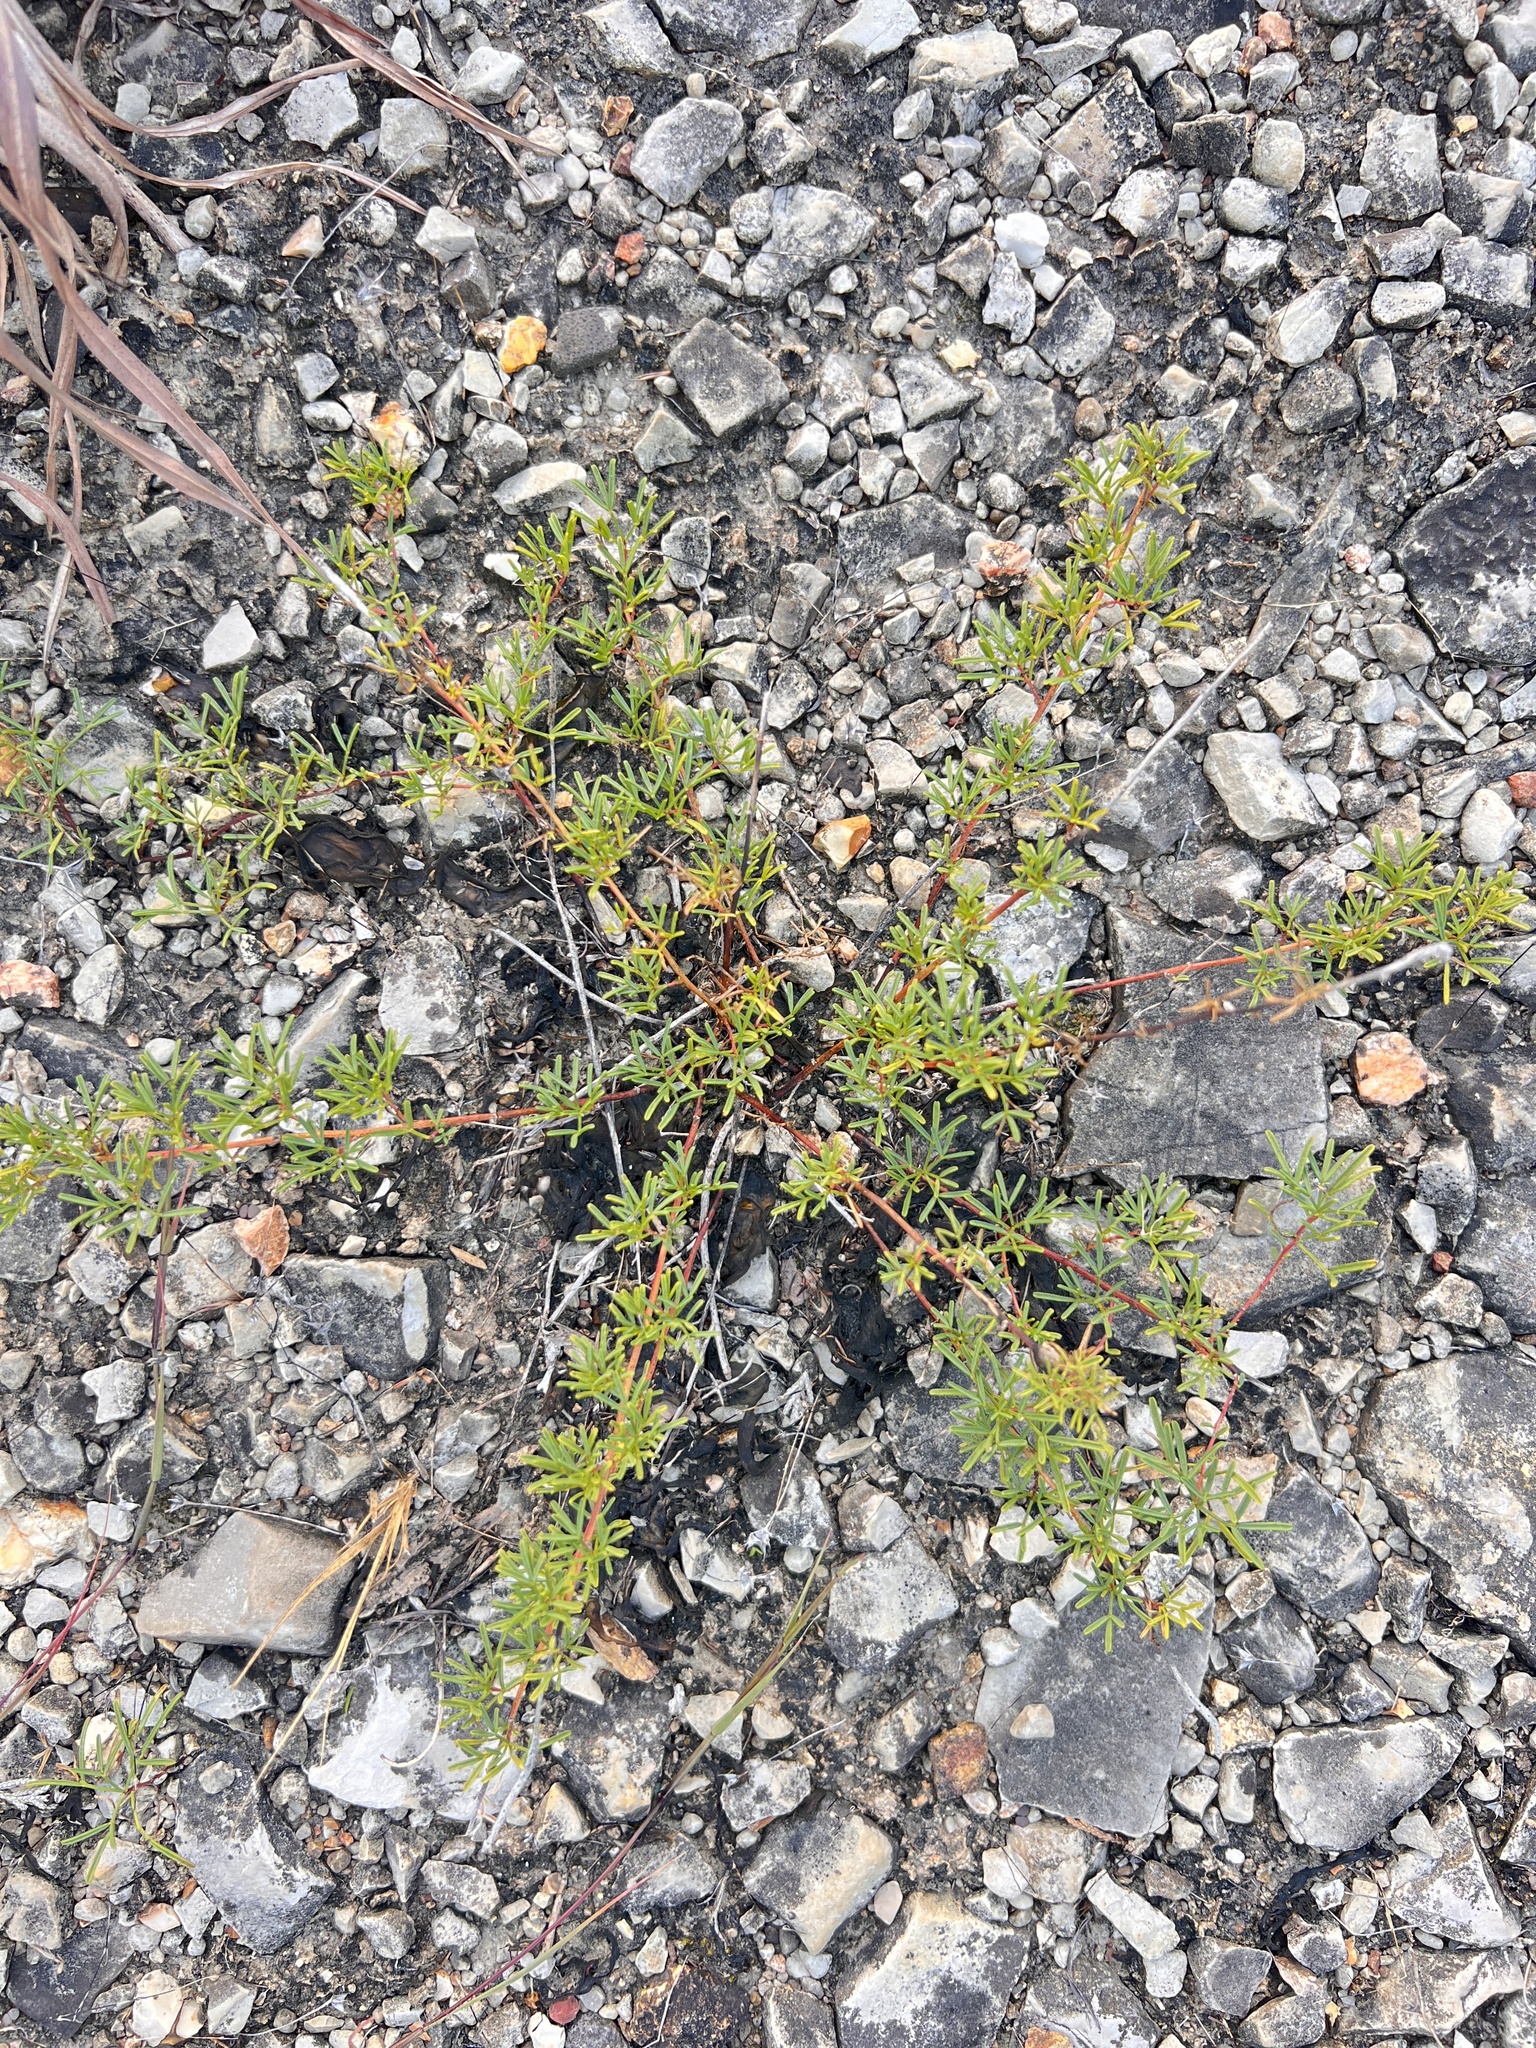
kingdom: Plantae
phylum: Tracheophyta
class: Magnoliopsida
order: Fabales
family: Fabaceae
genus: Dalea
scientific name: Dalea gattingeri
